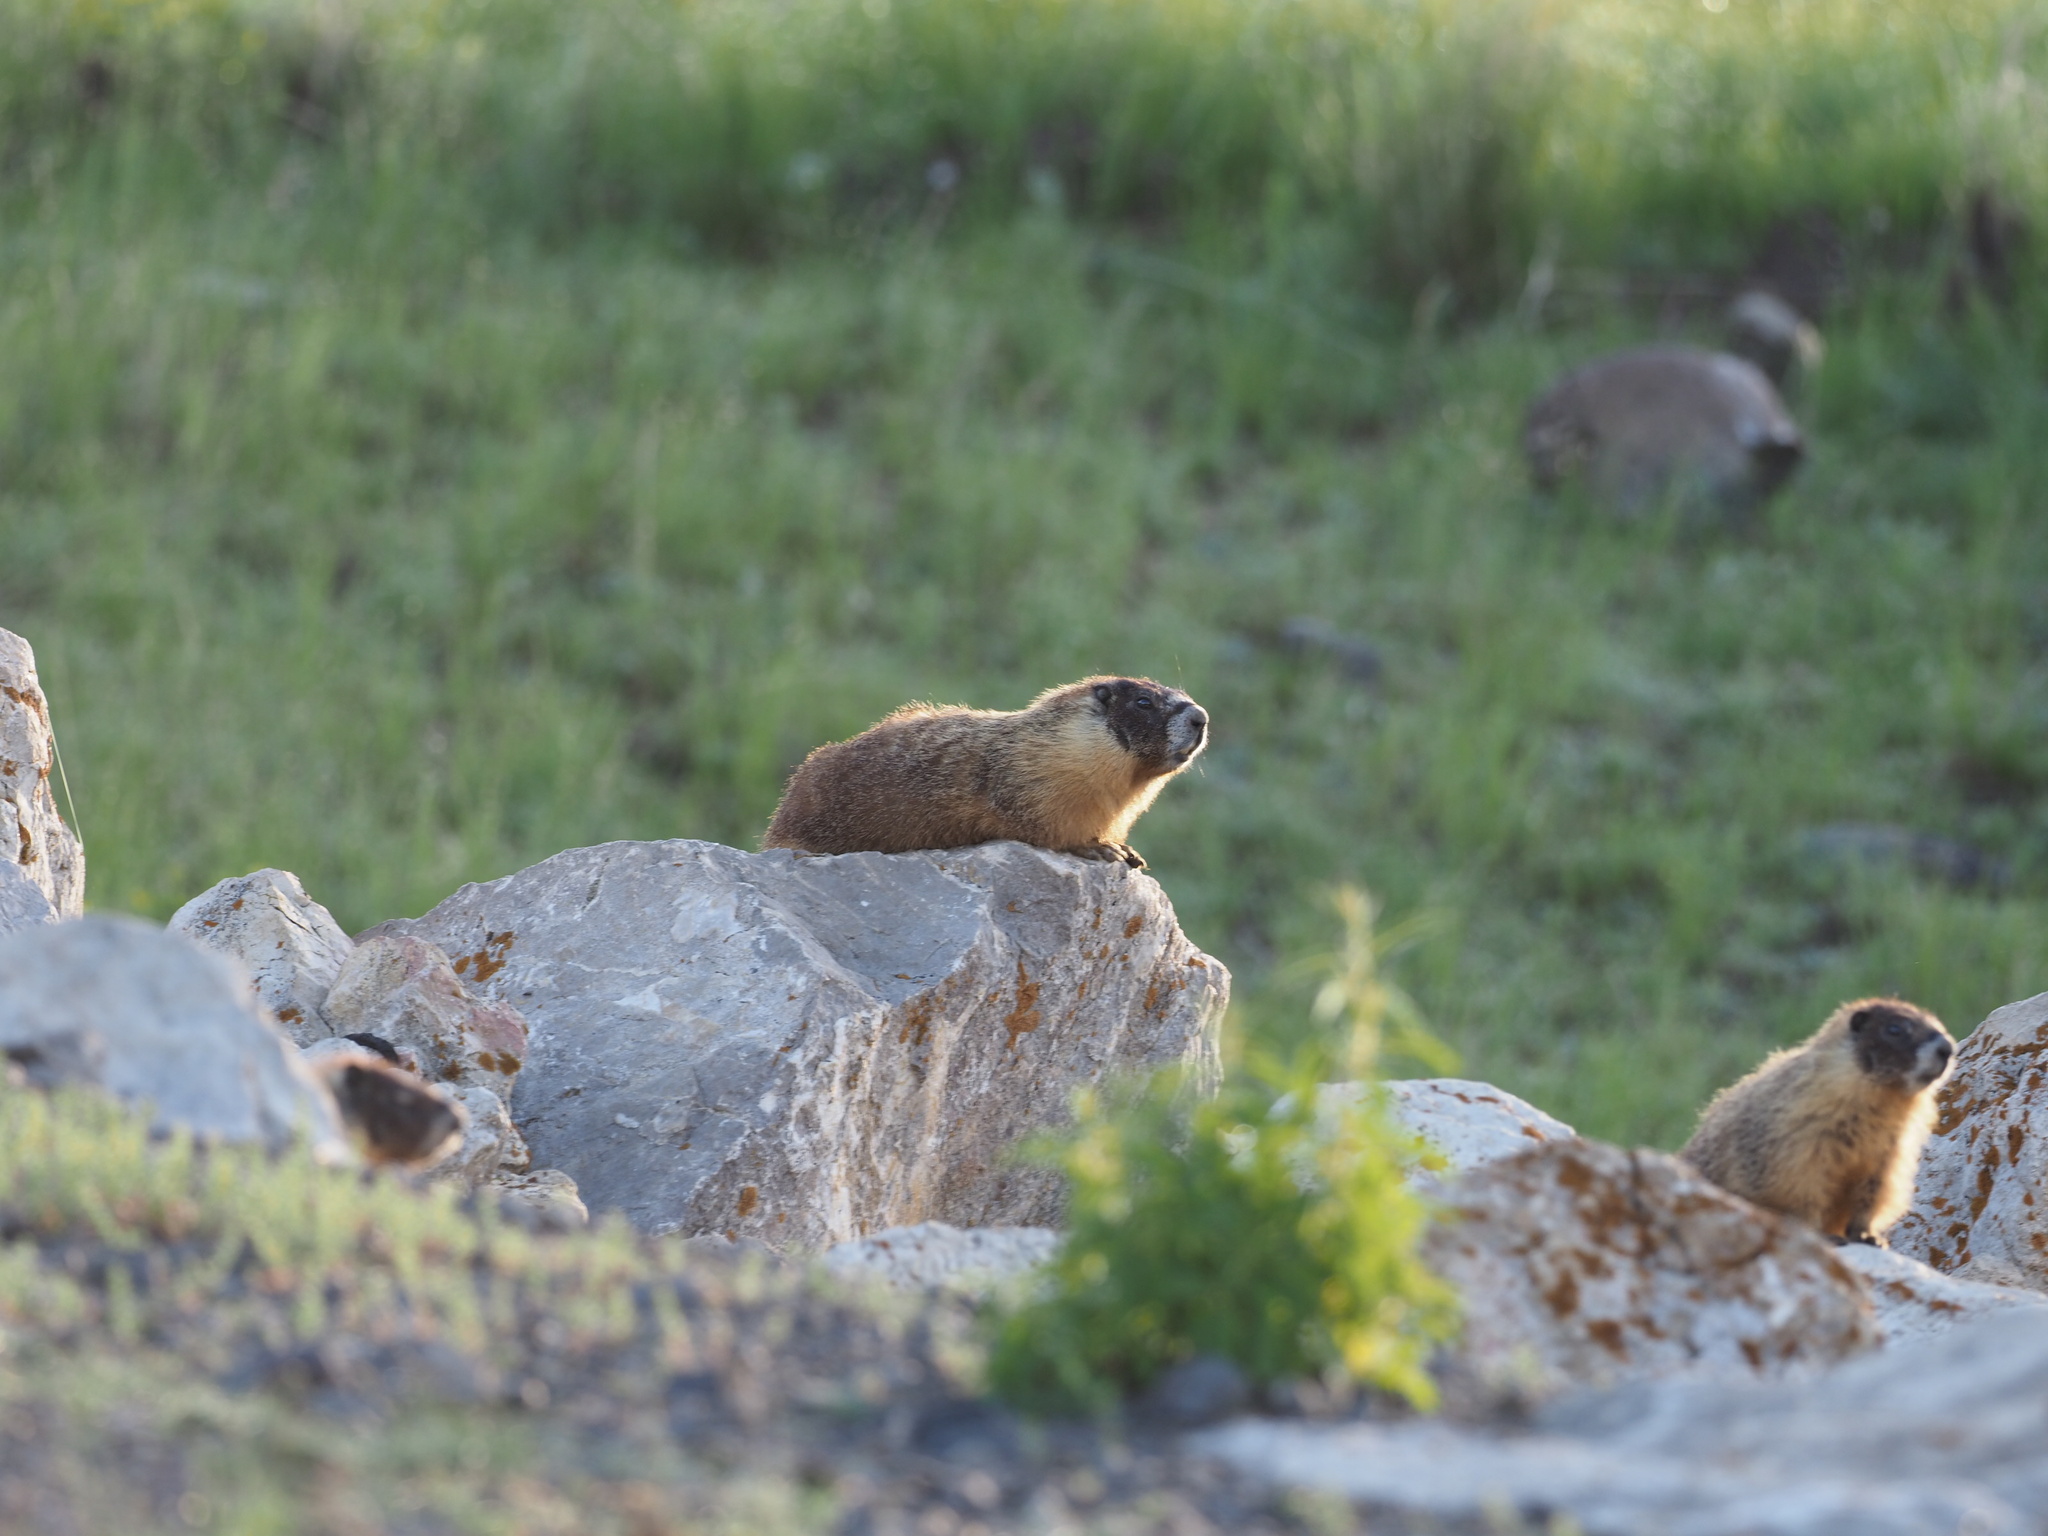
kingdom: Animalia
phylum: Chordata
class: Mammalia
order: Rodentia
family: Sciuridae
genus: Marmota
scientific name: Marmota flaviventris
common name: Yellow-bellied marmot
